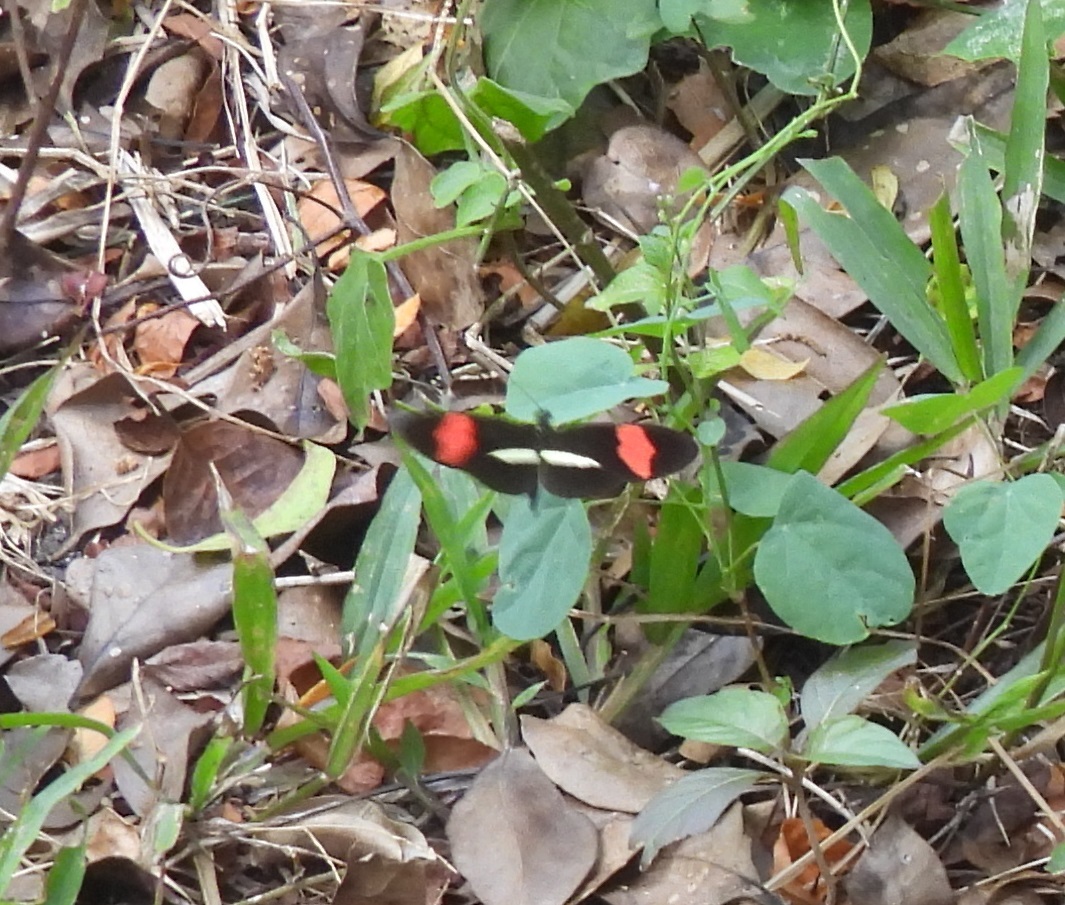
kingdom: Animalia
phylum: Arthropoda
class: Insecta
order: Lepidoptera
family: Nymphalidae
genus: Tirumala
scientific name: Tirumala petiverana
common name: Blue monarch
